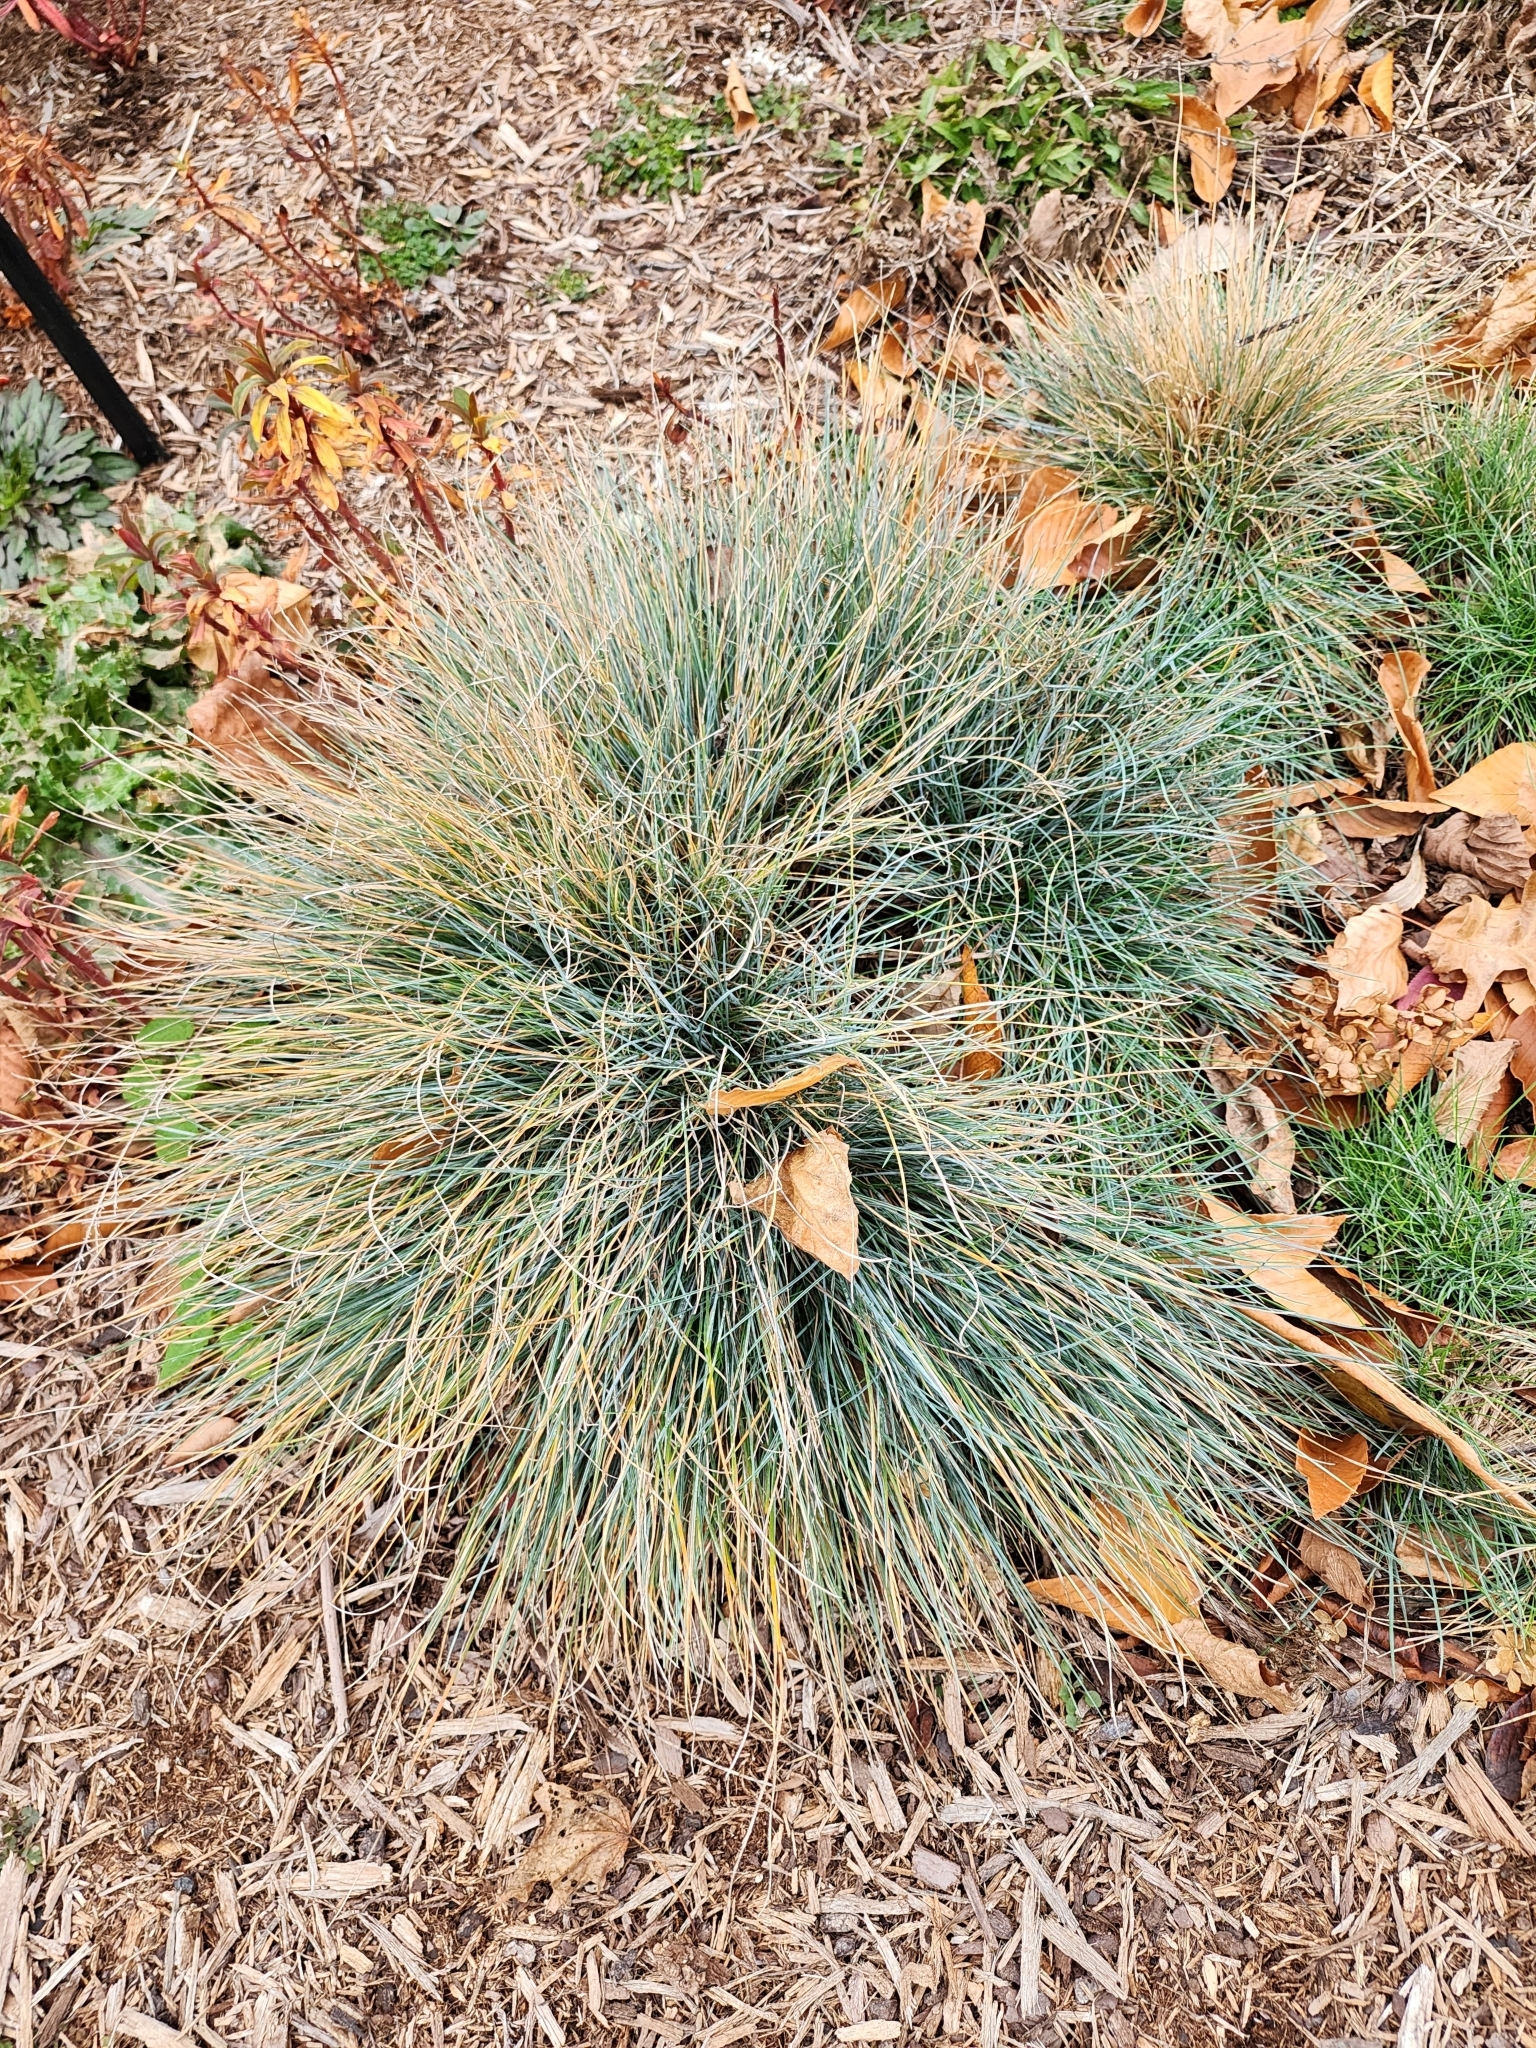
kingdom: Plantae
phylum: Tracheophyta
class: Liliopsida
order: Poales
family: Poaceae
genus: Festuca
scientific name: Festuca glauca
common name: Blue fescue
